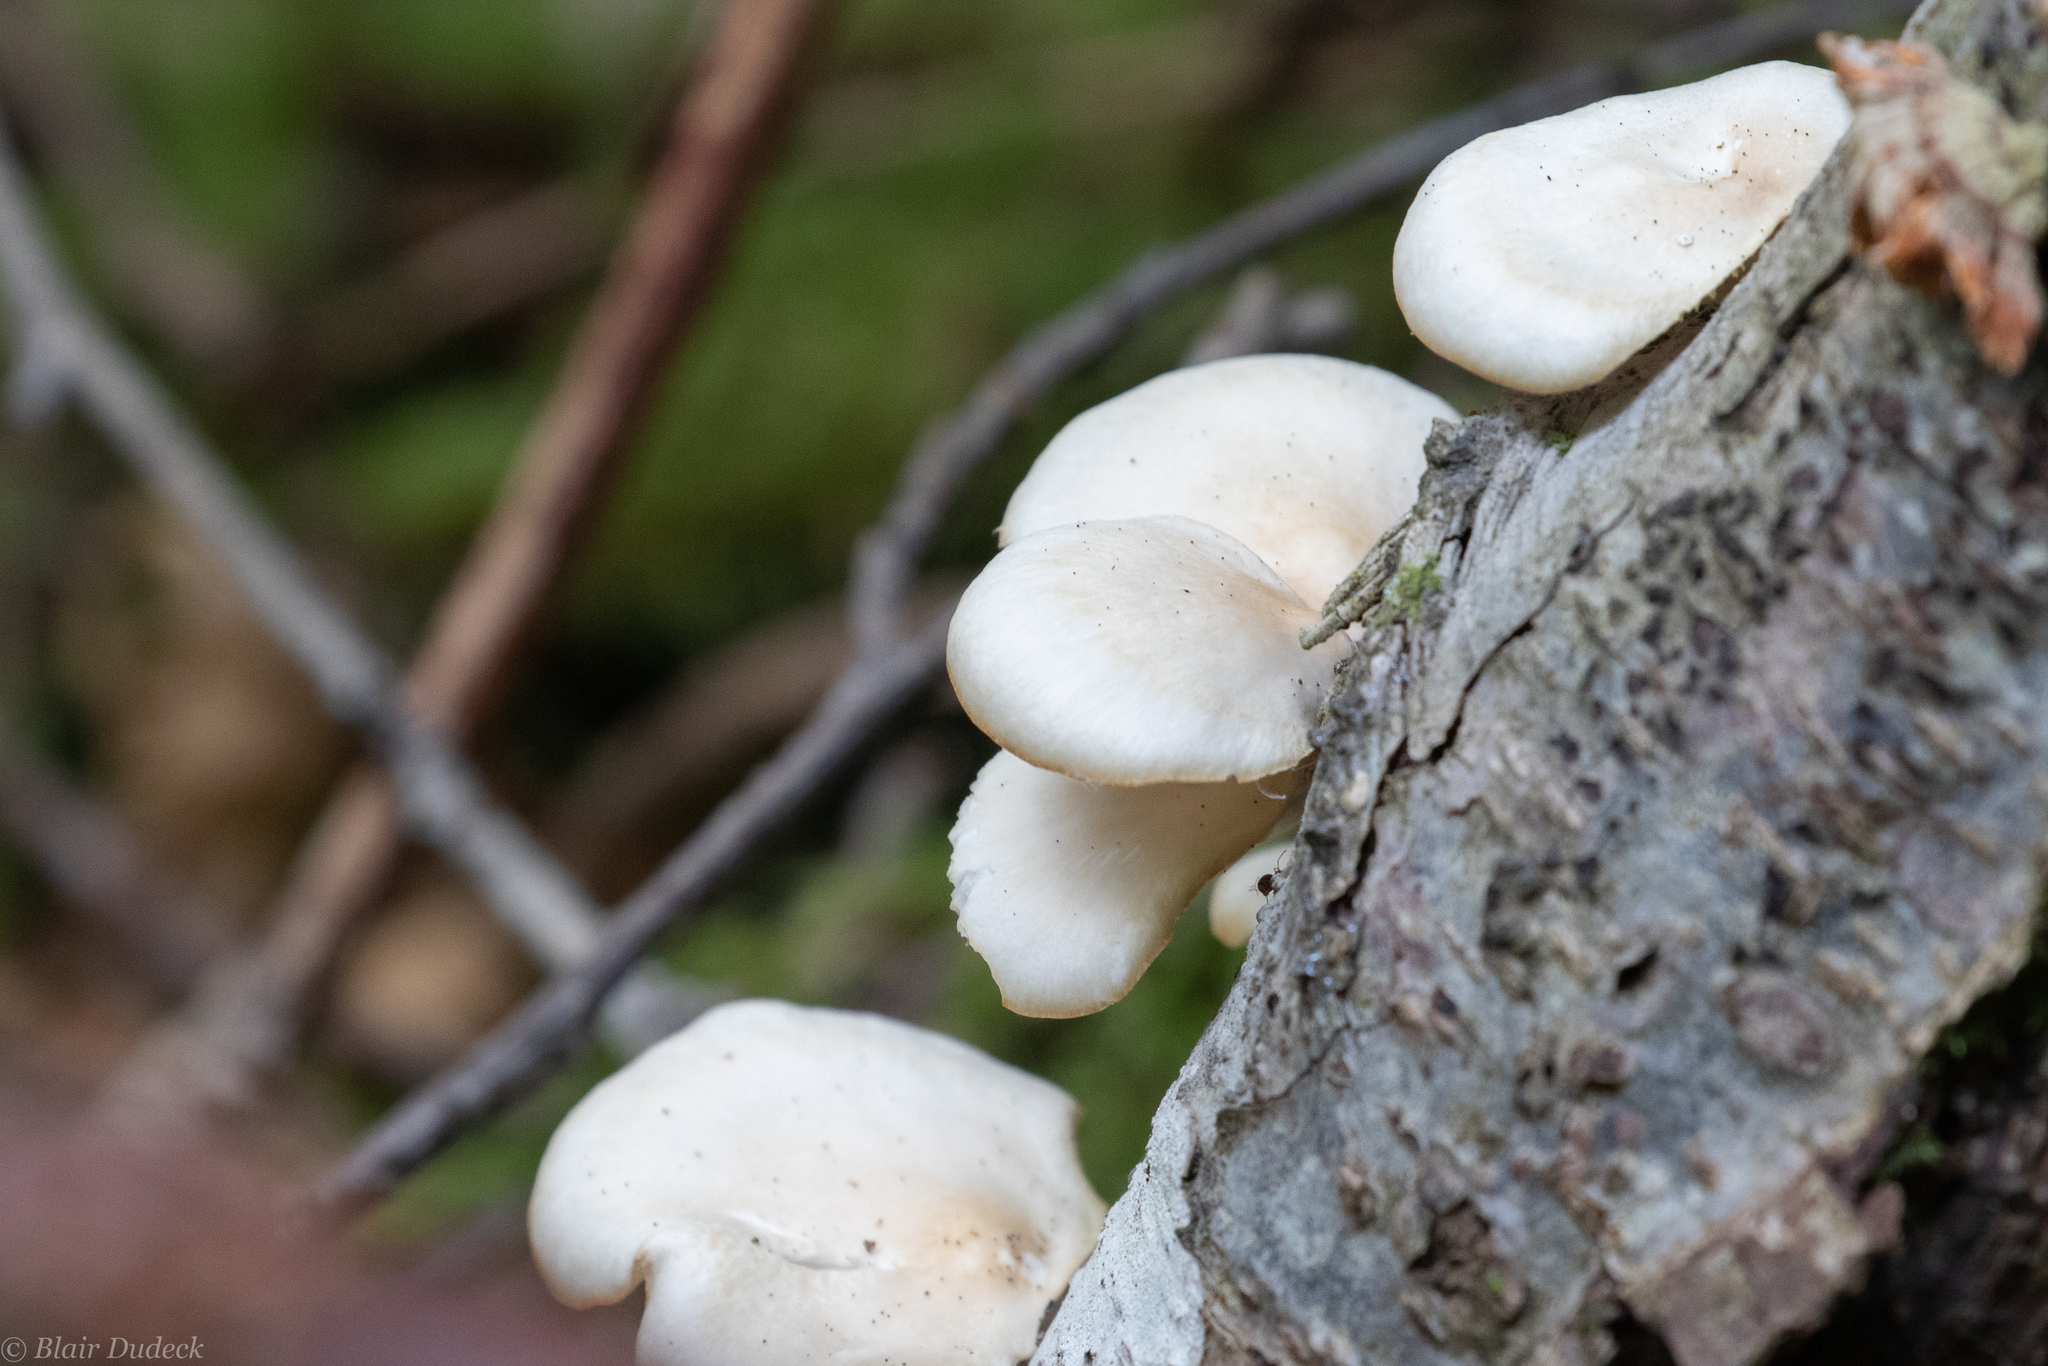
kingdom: Fungi
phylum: Basidiomycota
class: Agaricomycetes
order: Agaricales
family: Pleurotaceae
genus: Pleurotus
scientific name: Pleurotus pulmonarius
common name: Pale oyster
